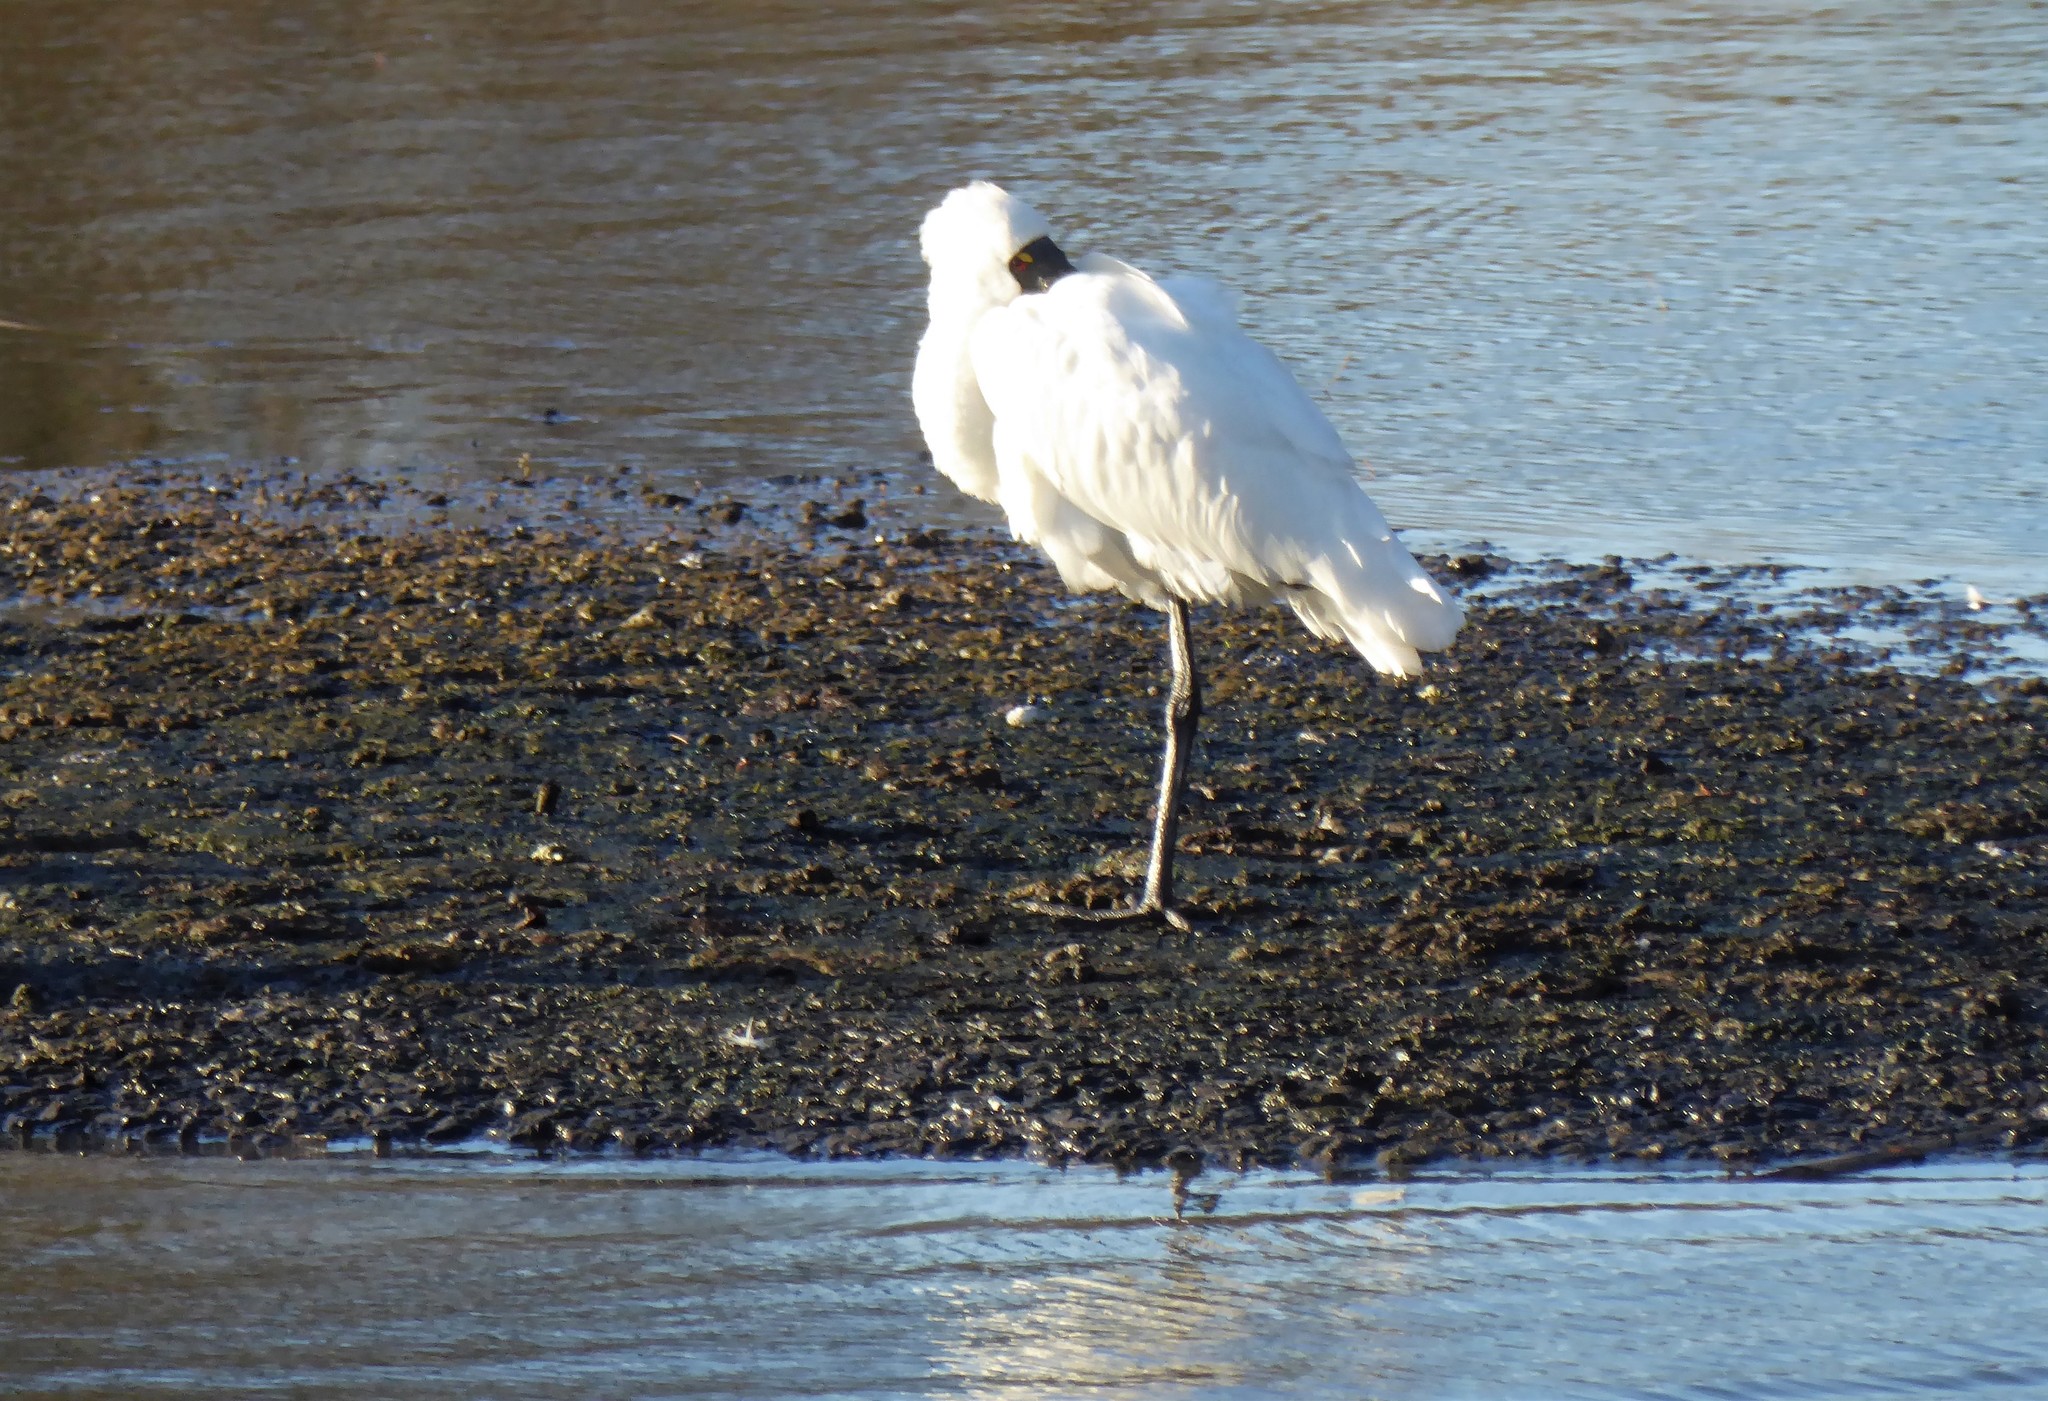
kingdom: Animalia
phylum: Chordata
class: Aves
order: Pelecaniformes
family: Threskiornithidae
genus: Platalea
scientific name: Platalea regia
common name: Royal spoonbill
